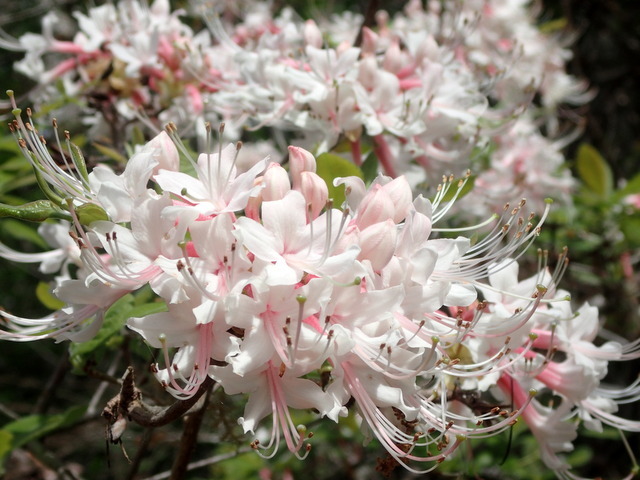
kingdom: Plantae
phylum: Tracheophyta
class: Magnoliopsida
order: Ericales
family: Ericaceae
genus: Rhododendron
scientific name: Rhododendron canescens
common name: Mountain azalea
